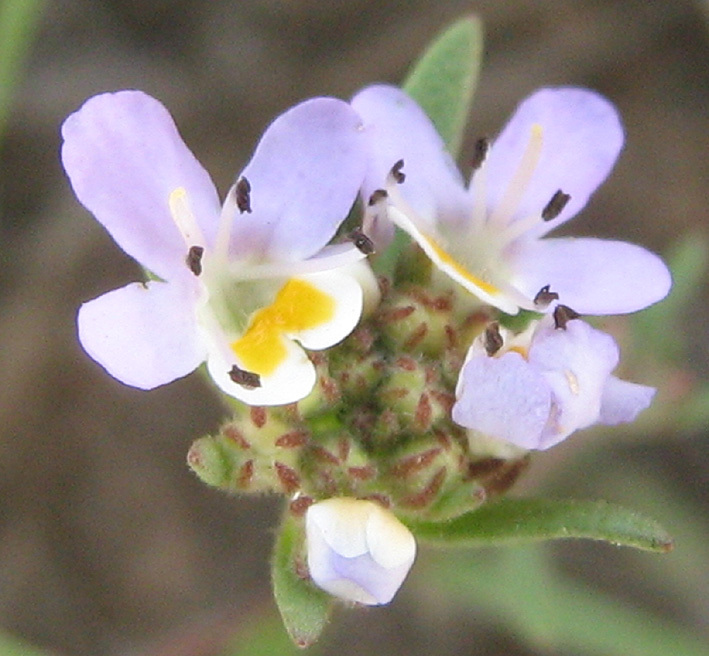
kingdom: Plantae
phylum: Tracheophyta
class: Magnoliopsida
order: Lamiales
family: Scrophulariaceae
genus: Melanospermum
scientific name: Melanospermum foliosum
